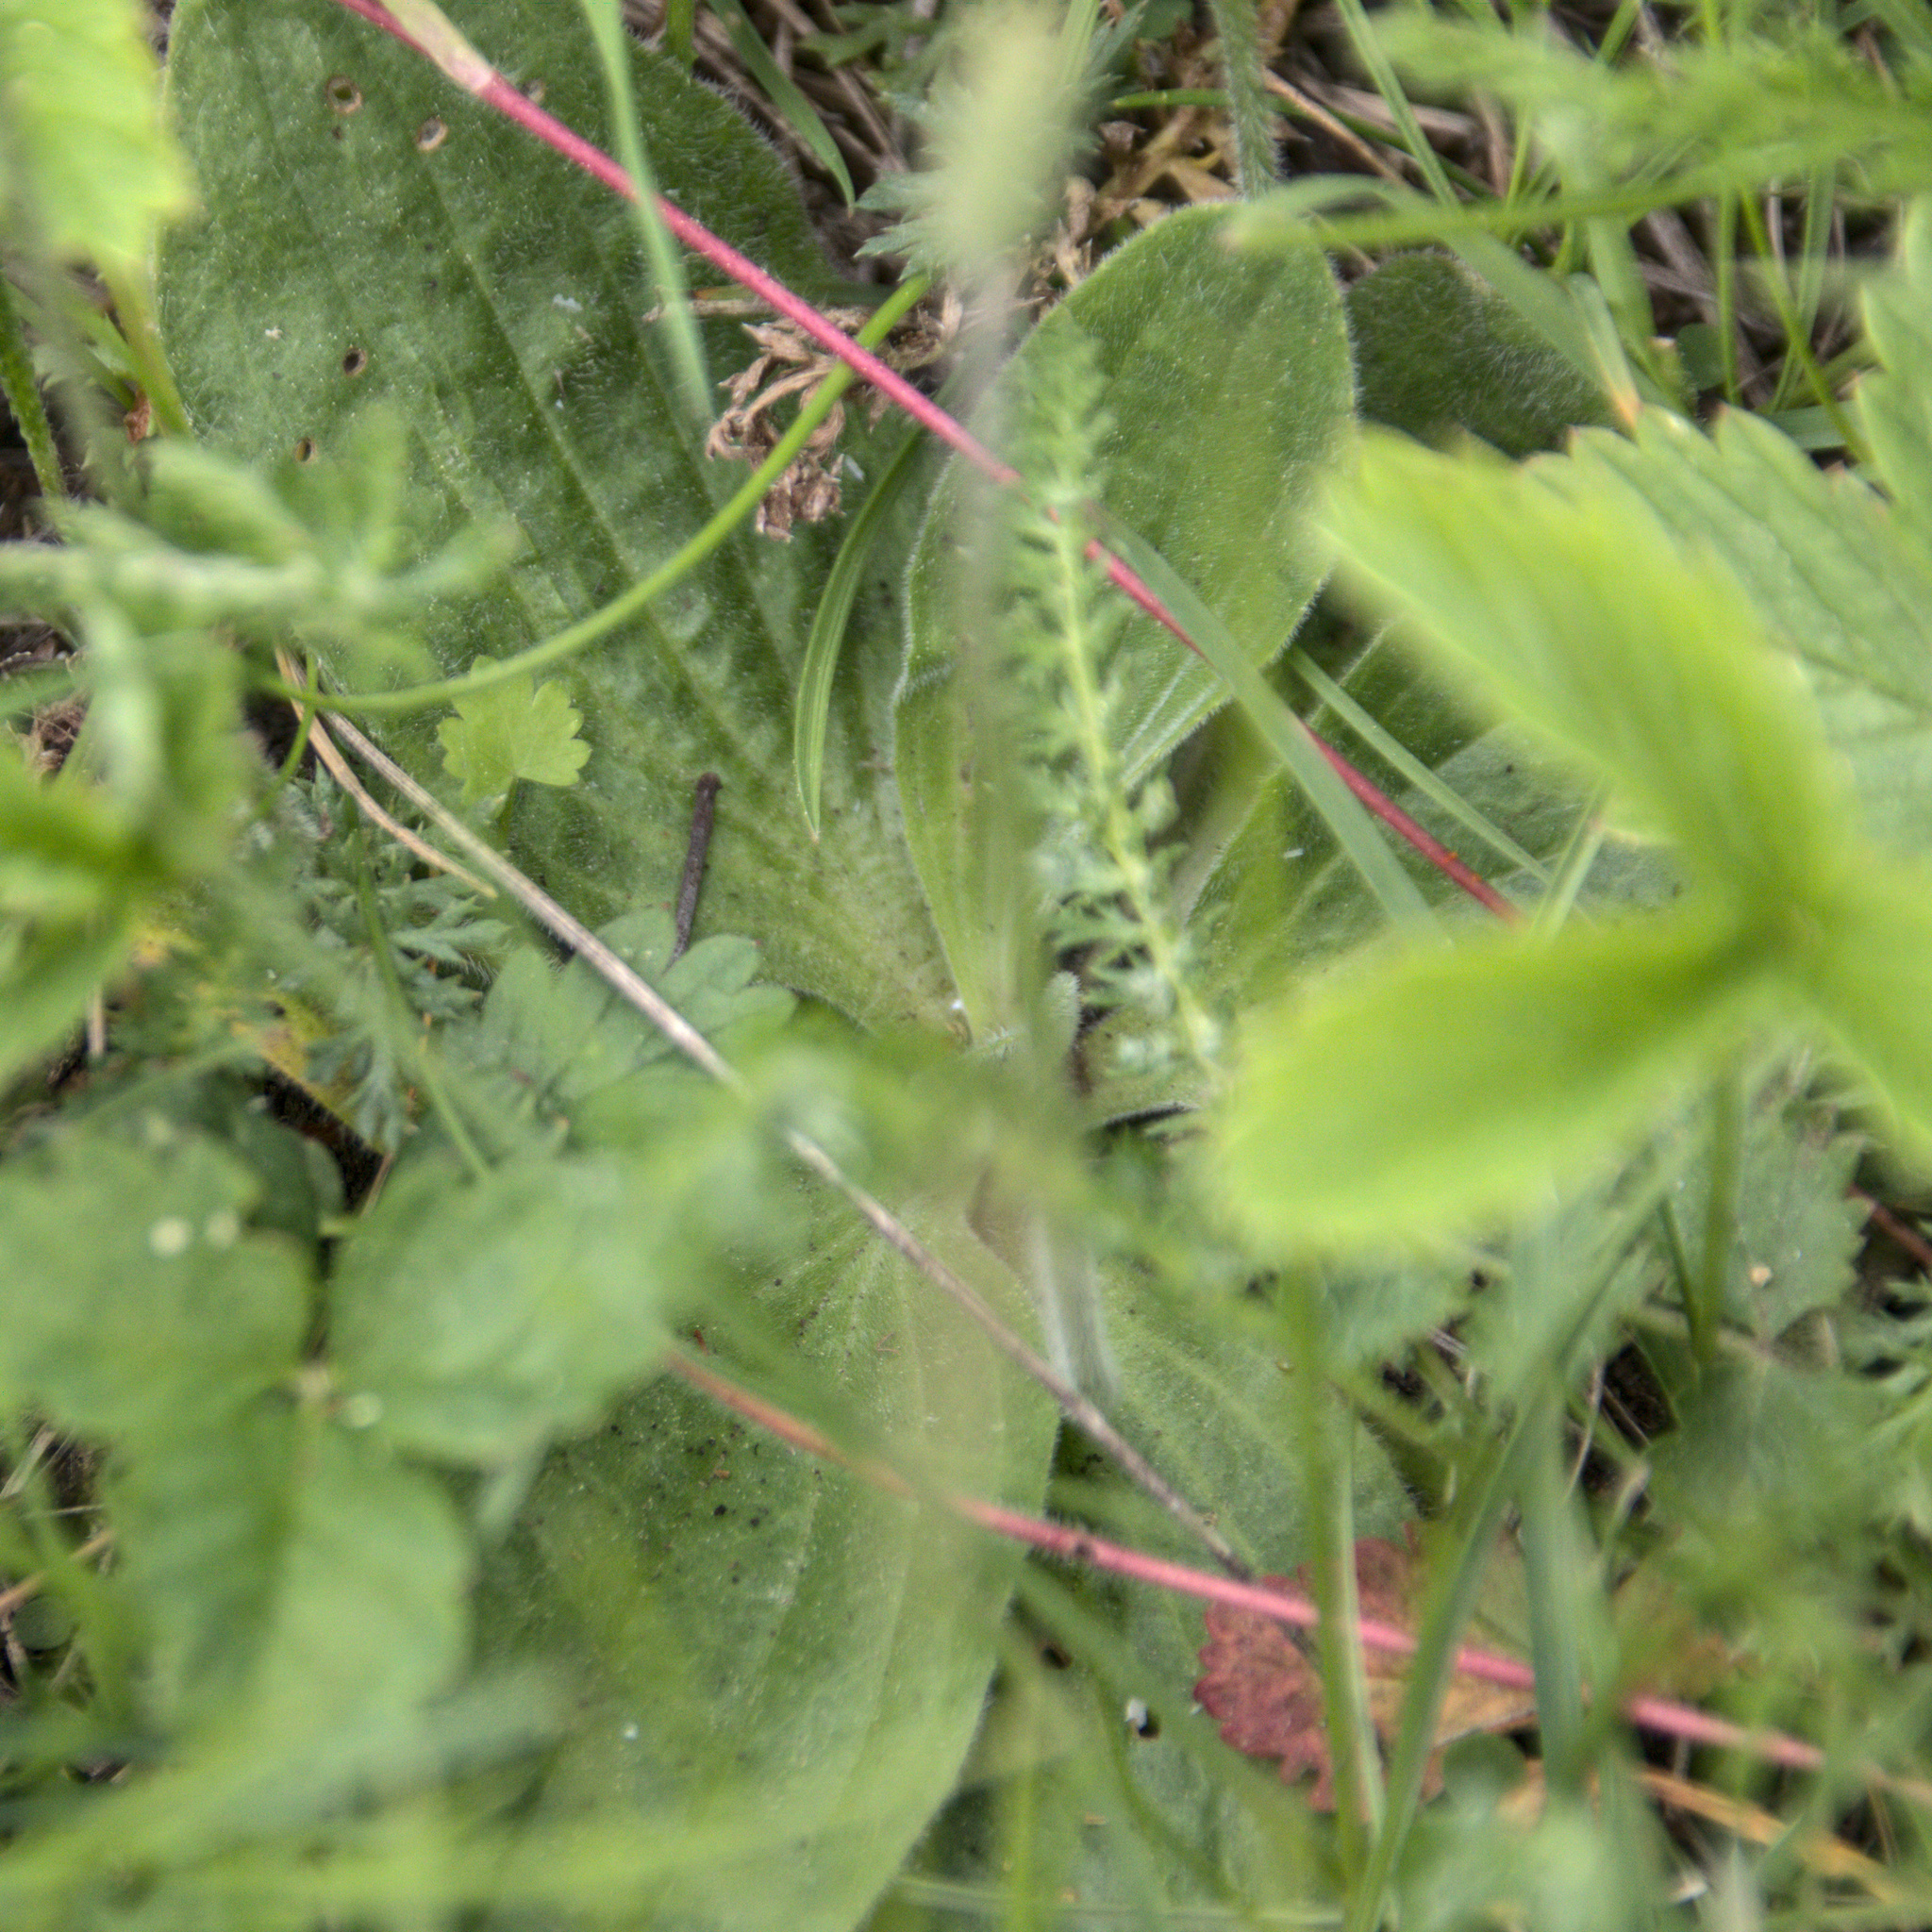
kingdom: Plantae
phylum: Tracheophyta
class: Magnoliopsida
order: Lamiales
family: Plantaginaceae
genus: Plantago
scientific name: Plantago media
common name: Hoary plantain
